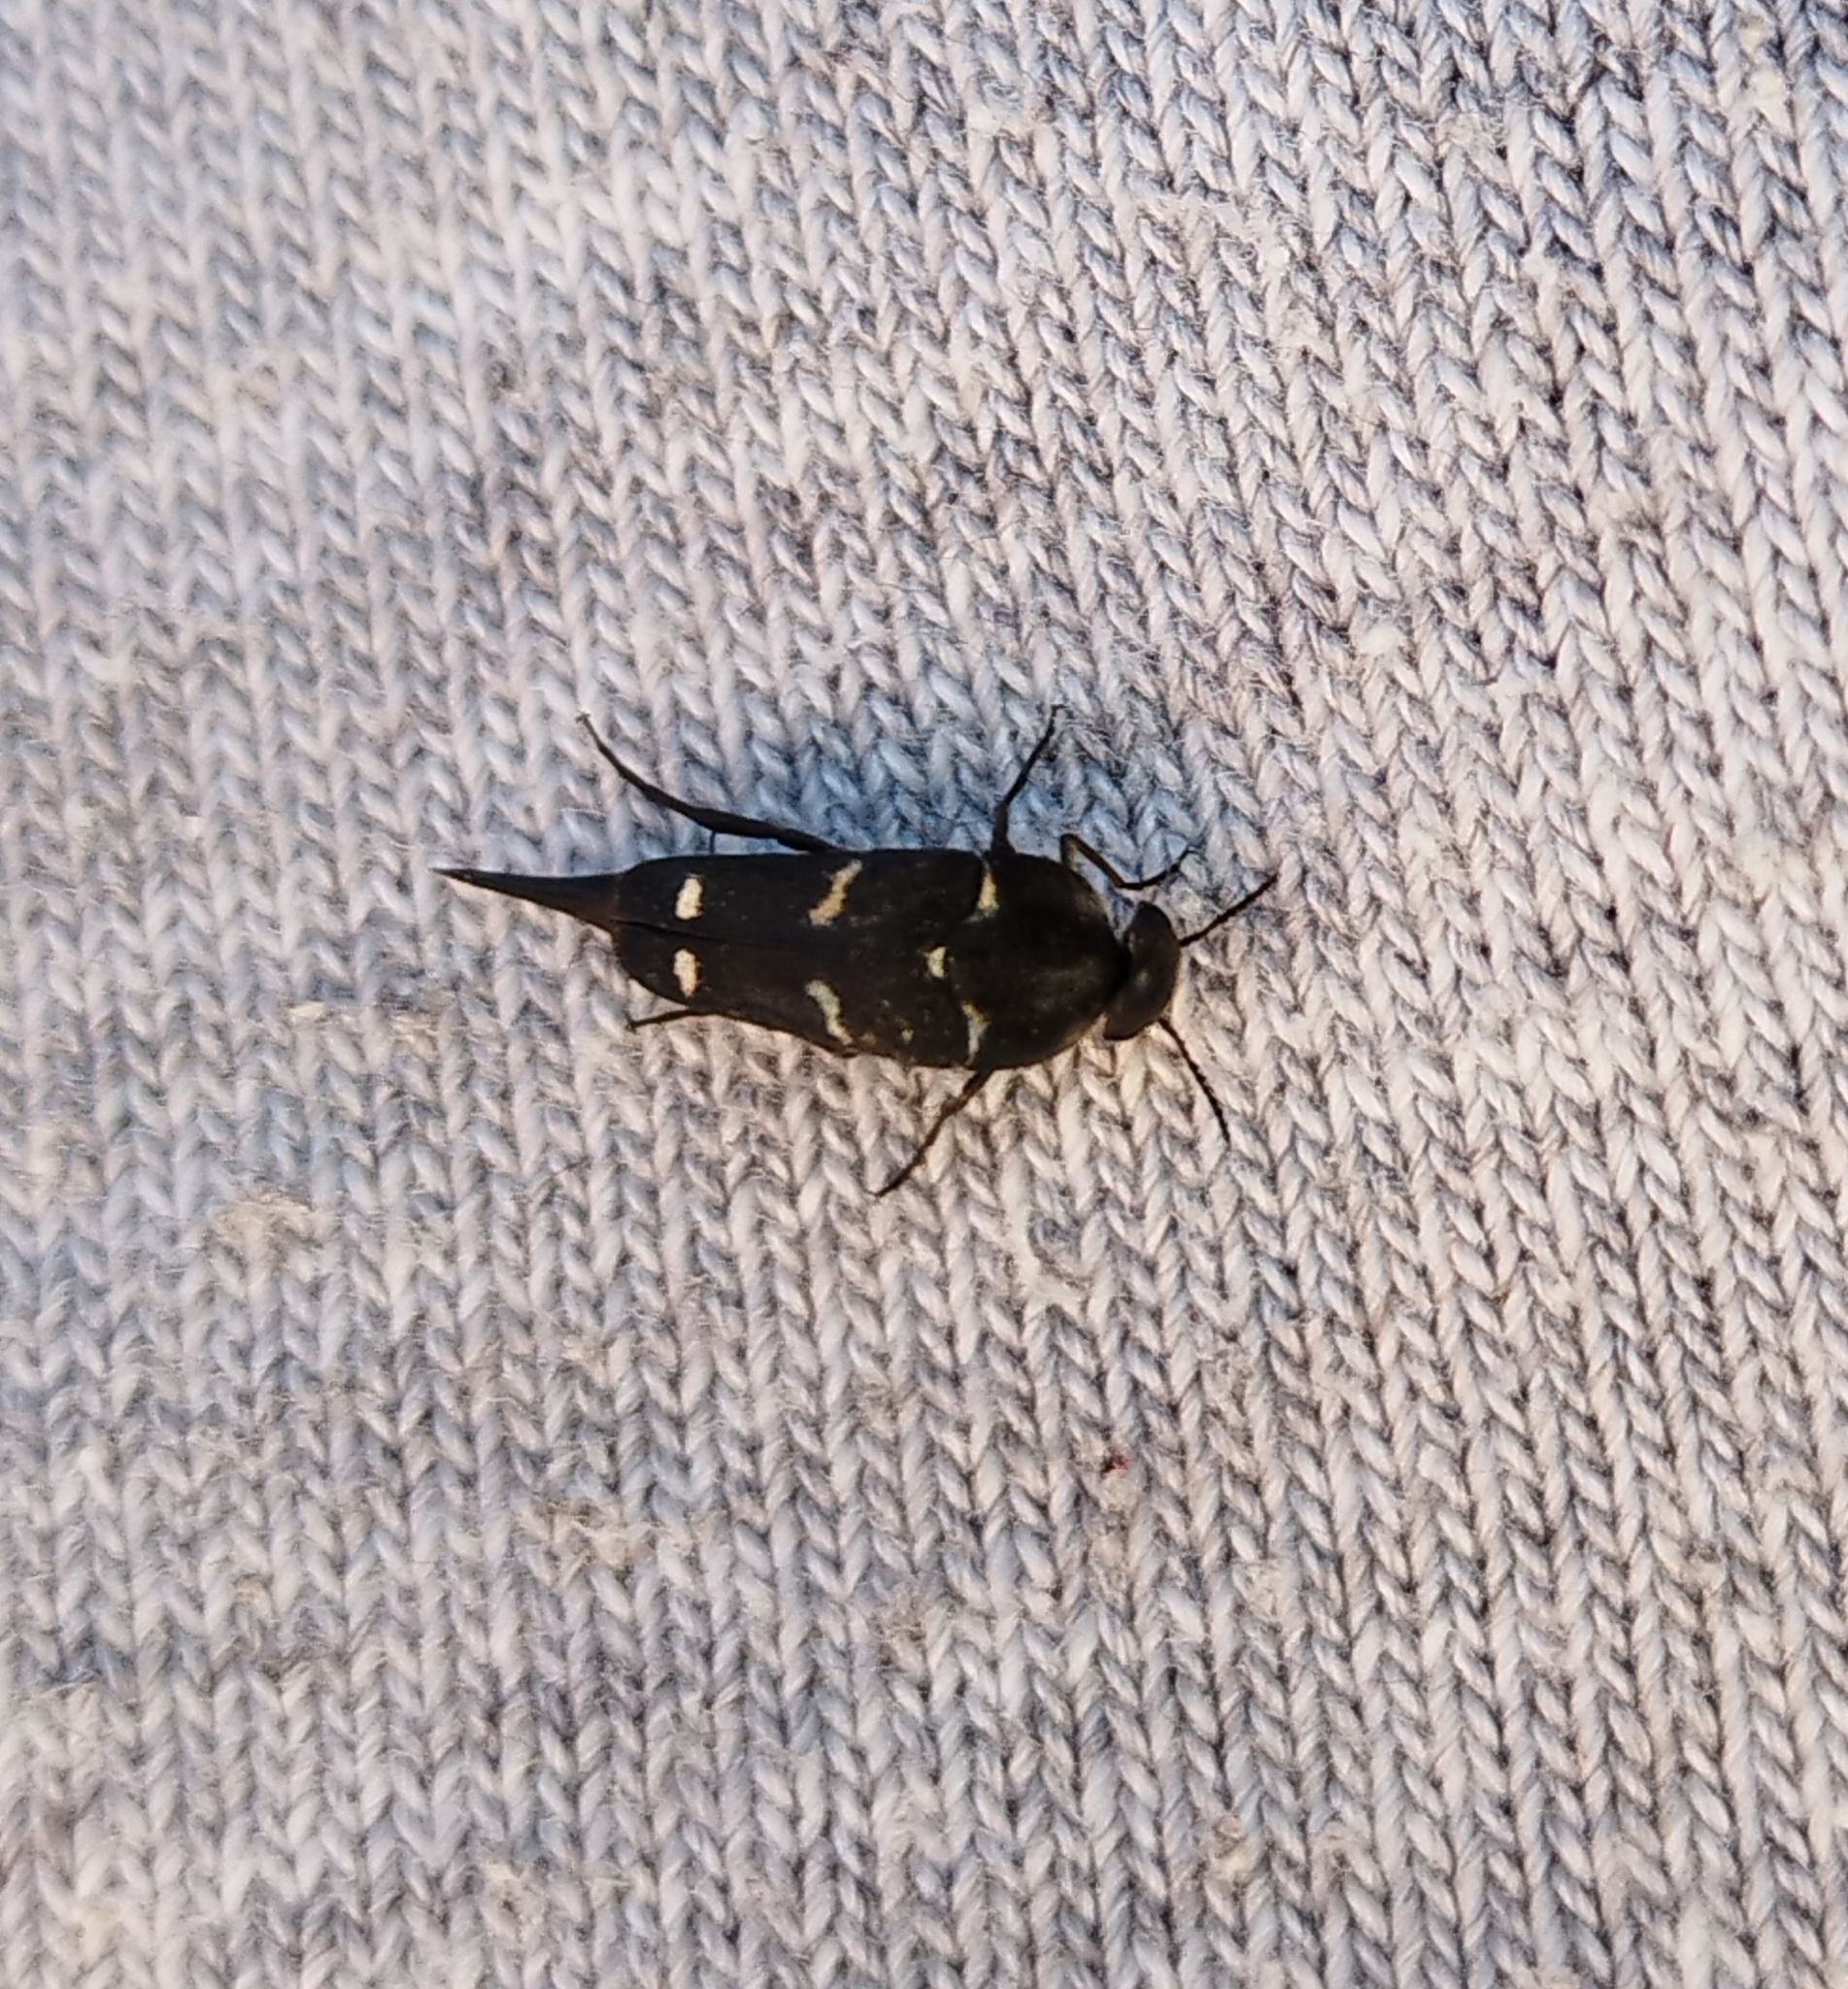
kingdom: Animalia
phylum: Arthropoda
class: Insecta
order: Coleoptera
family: Mordellidae
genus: Mordella
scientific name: Mordella
